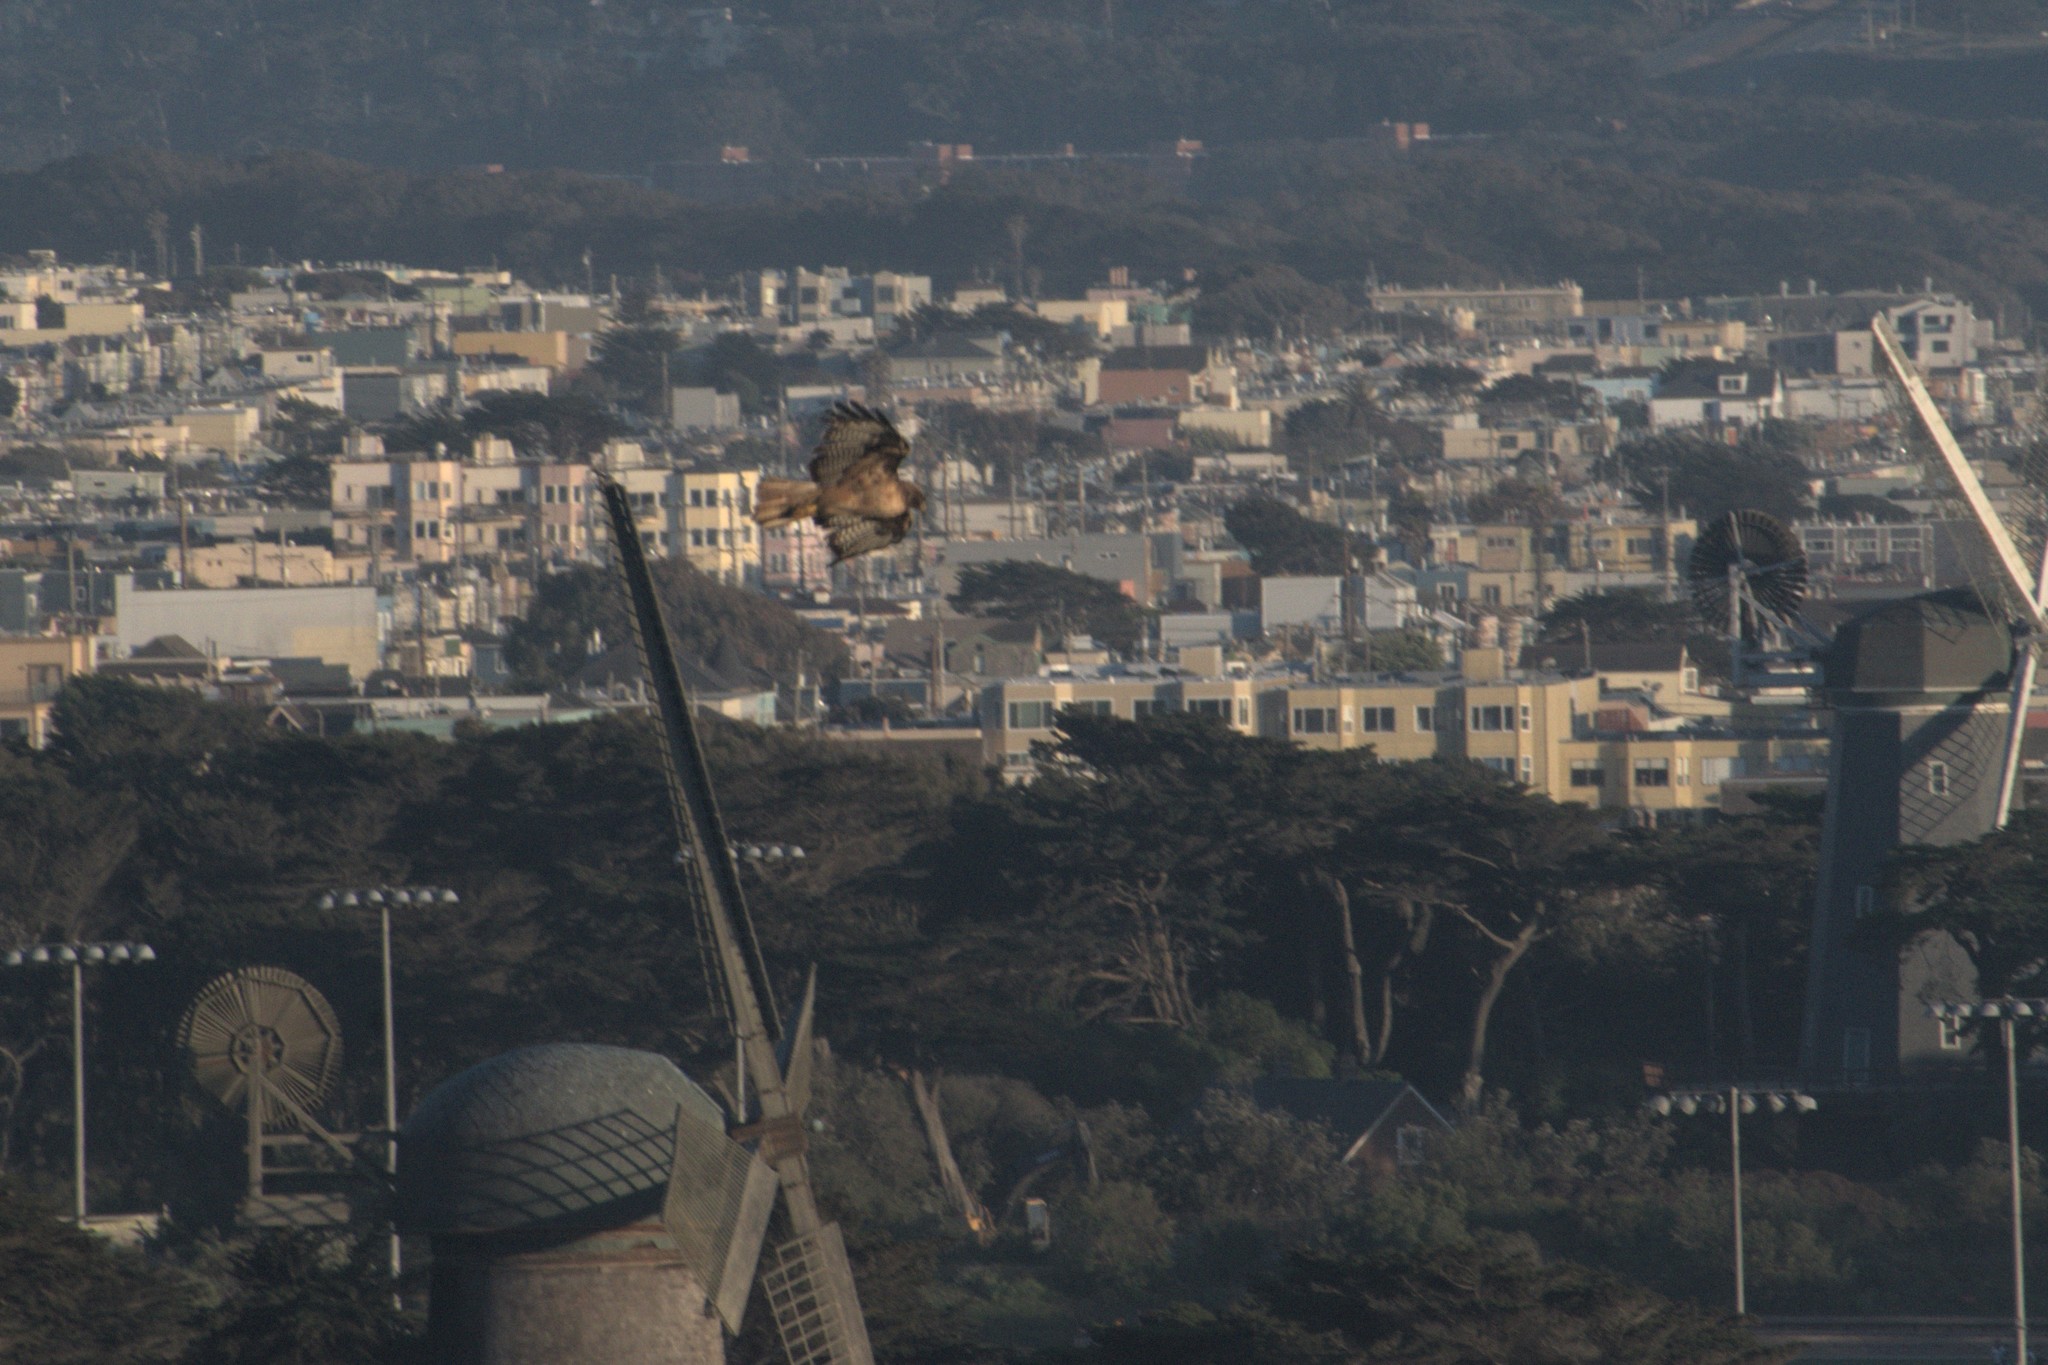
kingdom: Animalia
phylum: Chordata
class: Aves
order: Accipitriformes
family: Accipitridae
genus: Buteo
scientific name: Buteo jamaicensis
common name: Red-tailed hawk
